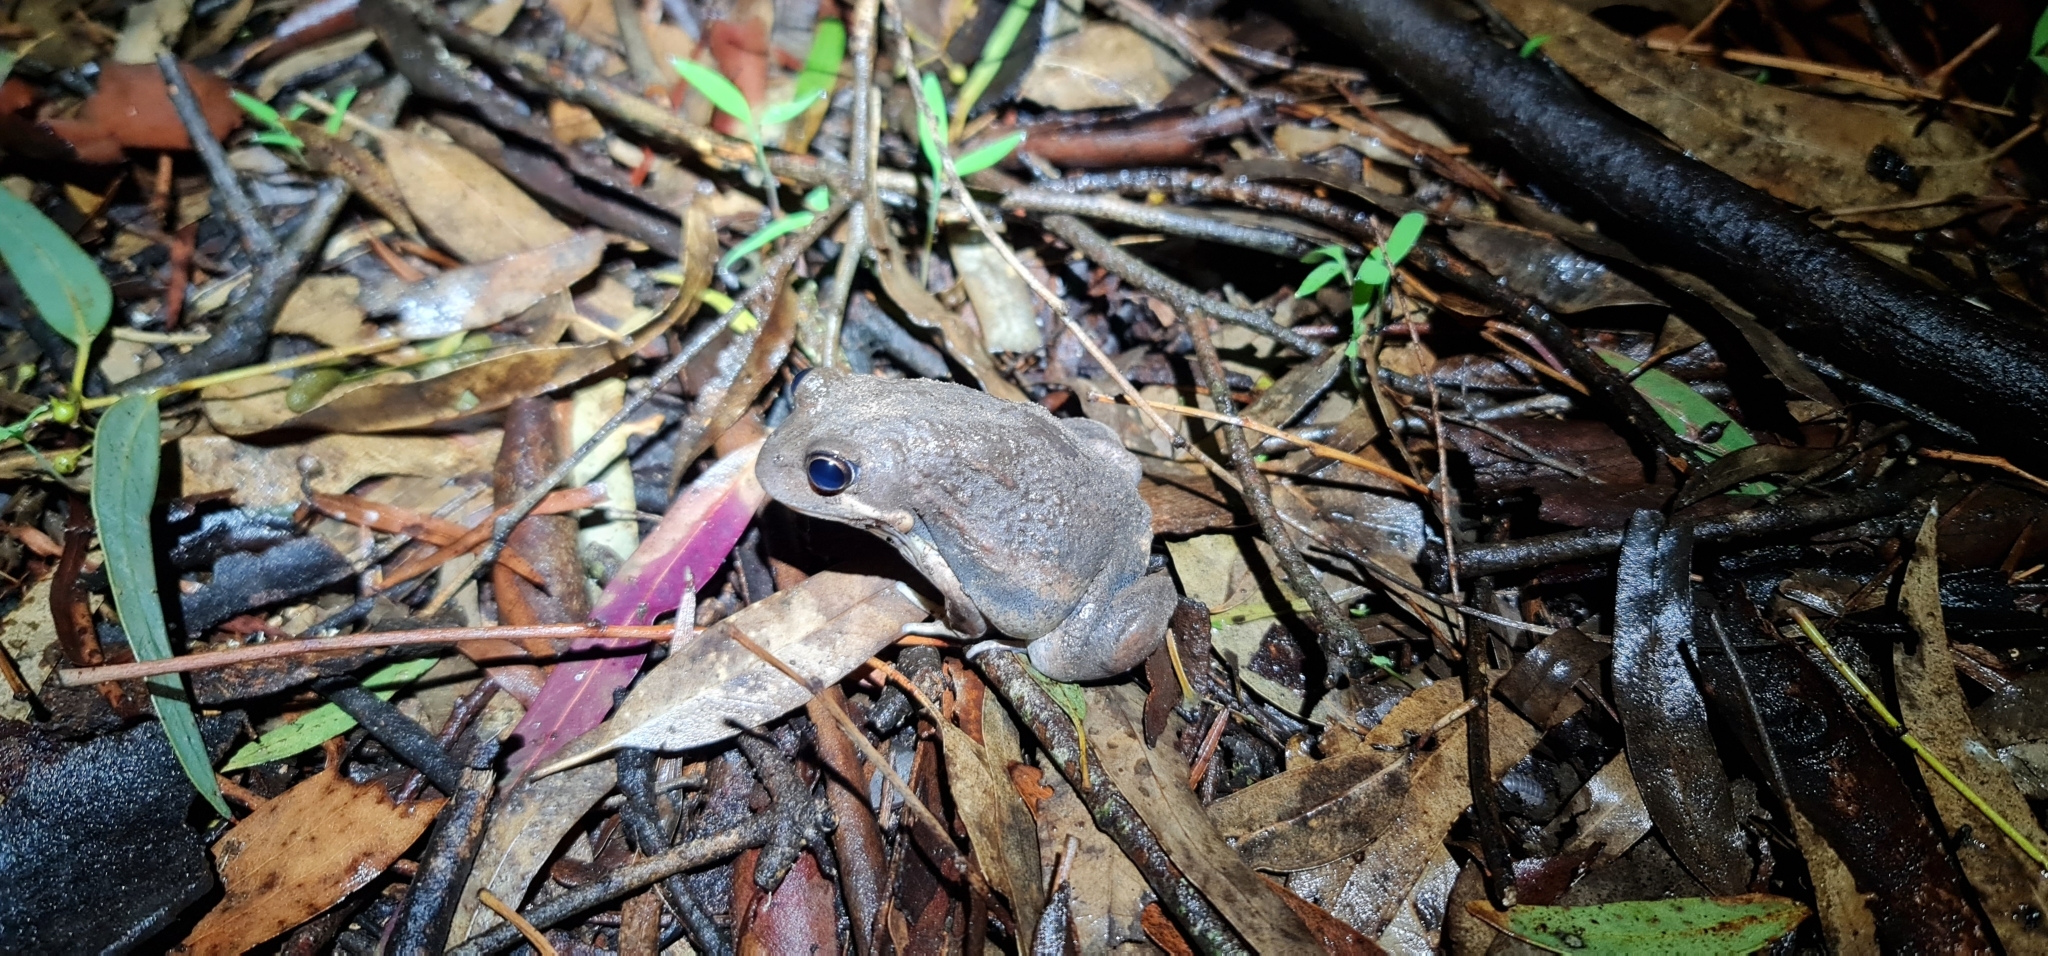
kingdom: Animalia
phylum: Chordata
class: Amphibia
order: Anura
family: Limnodynastidae
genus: Limnodynastes
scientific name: Limnodynastes dumerilii
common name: Banjo frog
